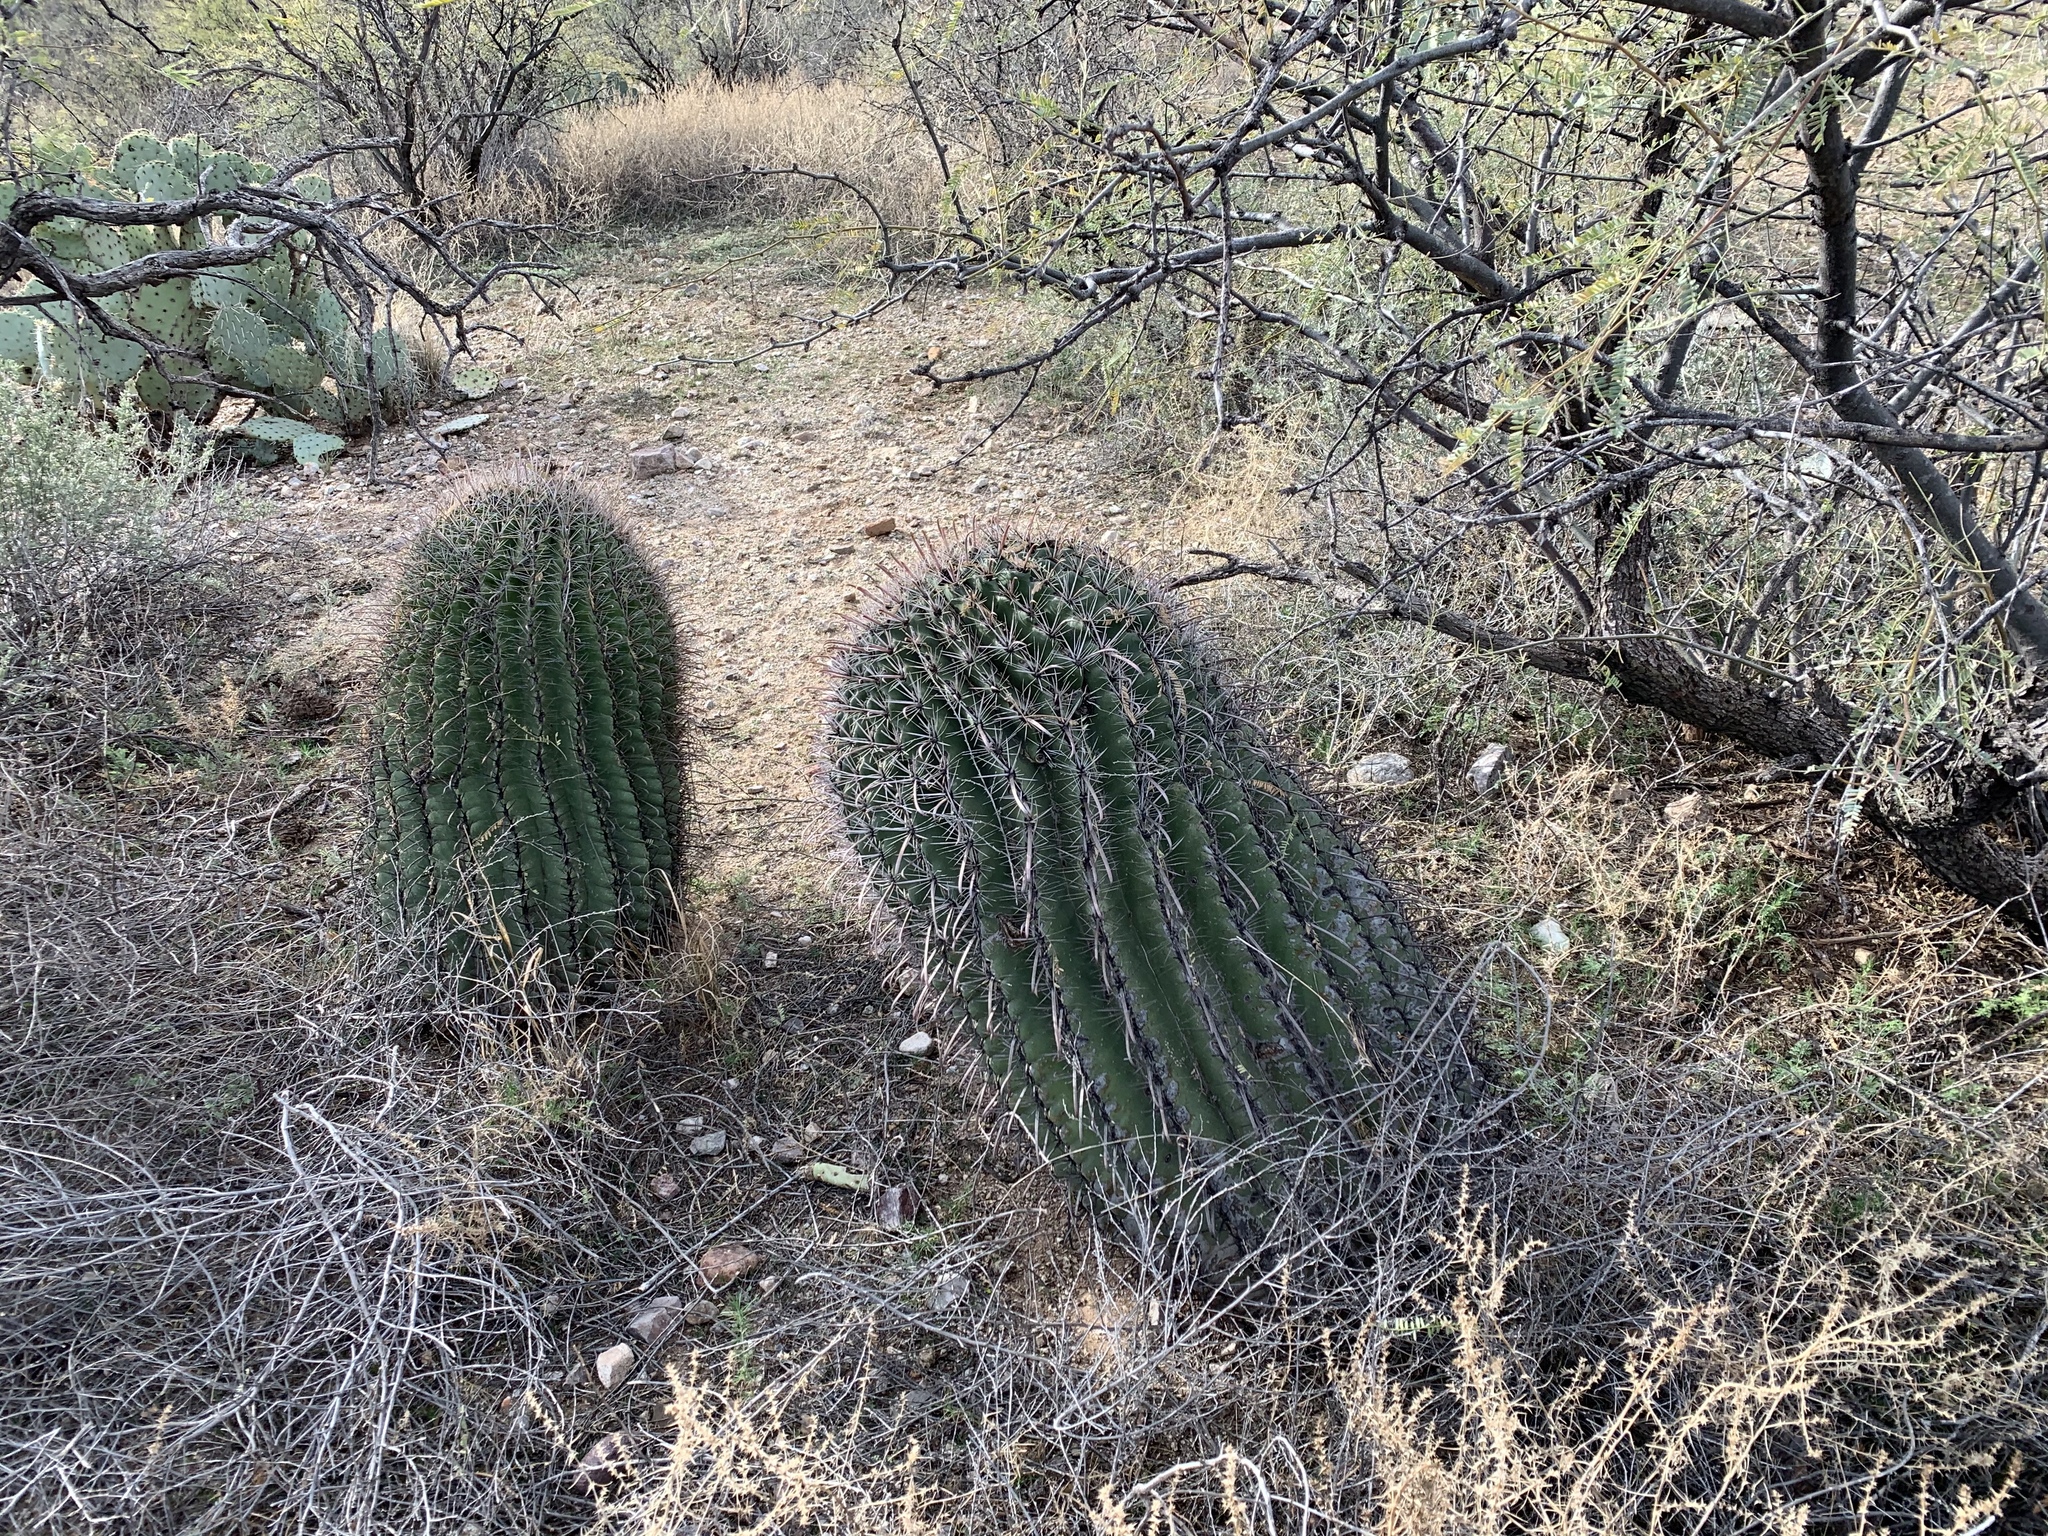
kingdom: Plantae
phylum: Tracheophyta
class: Magnoliopsida
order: Caryophyllales
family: Cactaceae
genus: Ferocactus
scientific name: Ferocactus wislizeni
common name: Candy barrel cactus
